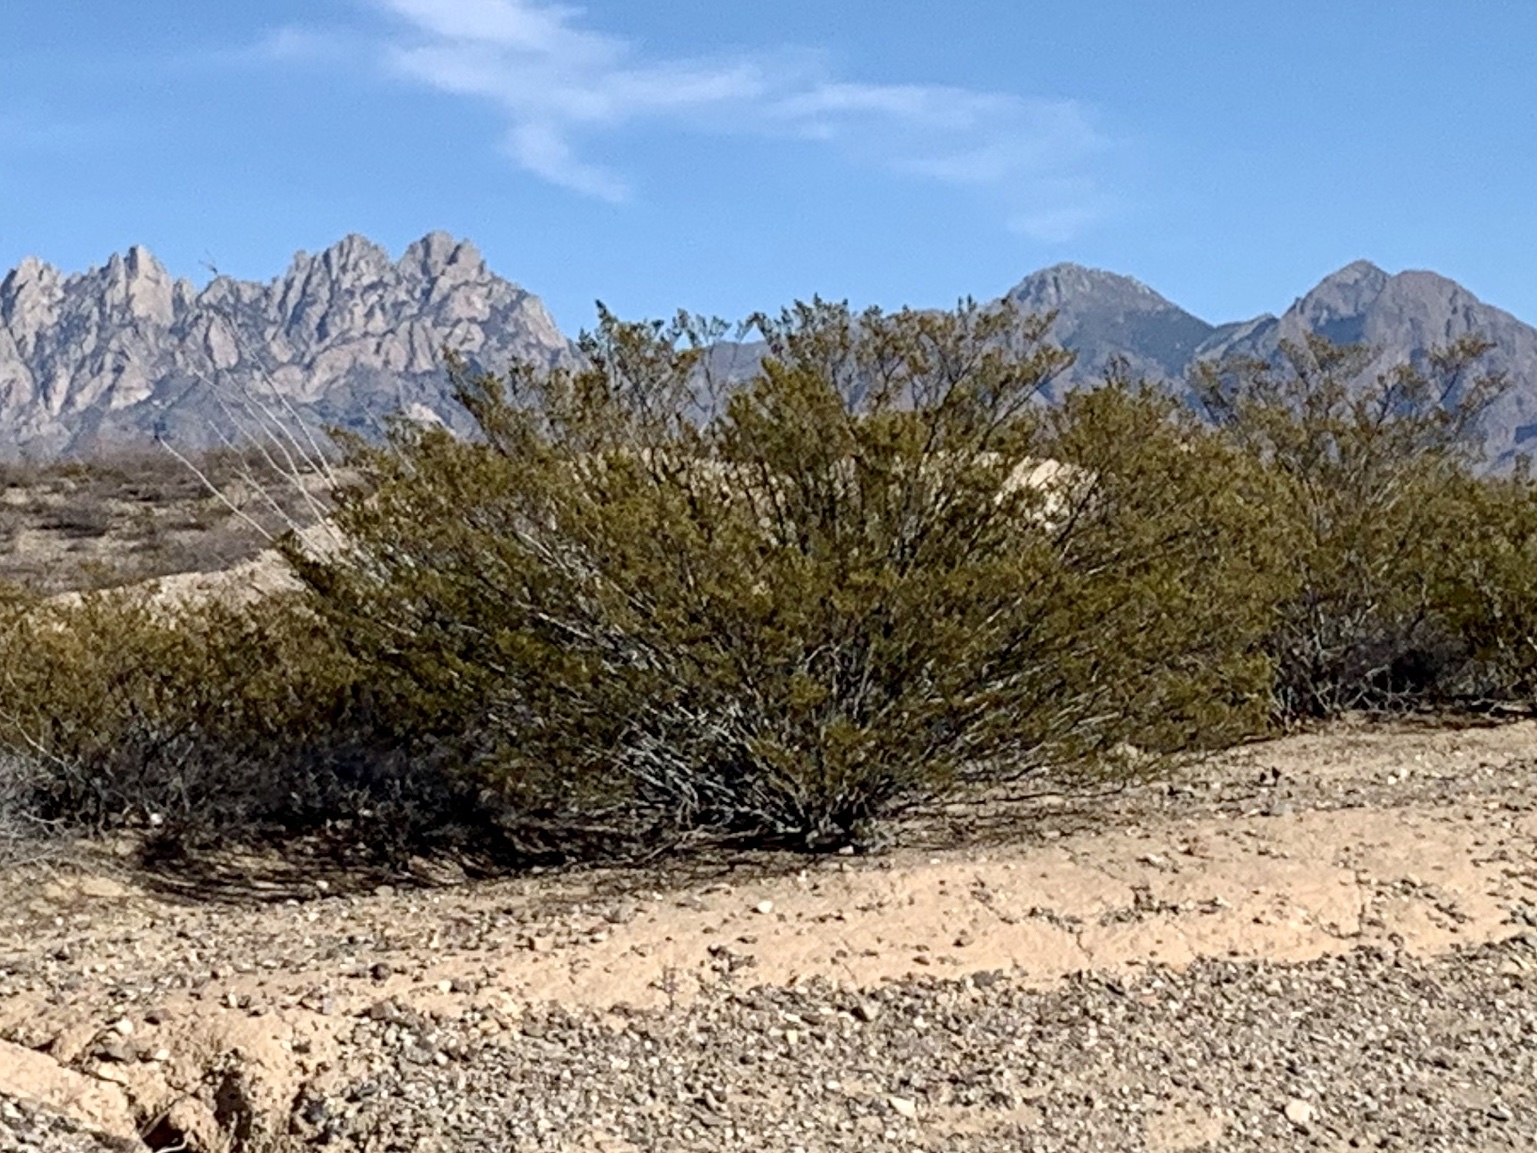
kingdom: Plantae
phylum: Tracheophyta
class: Magnoliopsida
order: Zygophyllales
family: Zygophyllaceae
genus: Larrea
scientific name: Larrea tridentata
